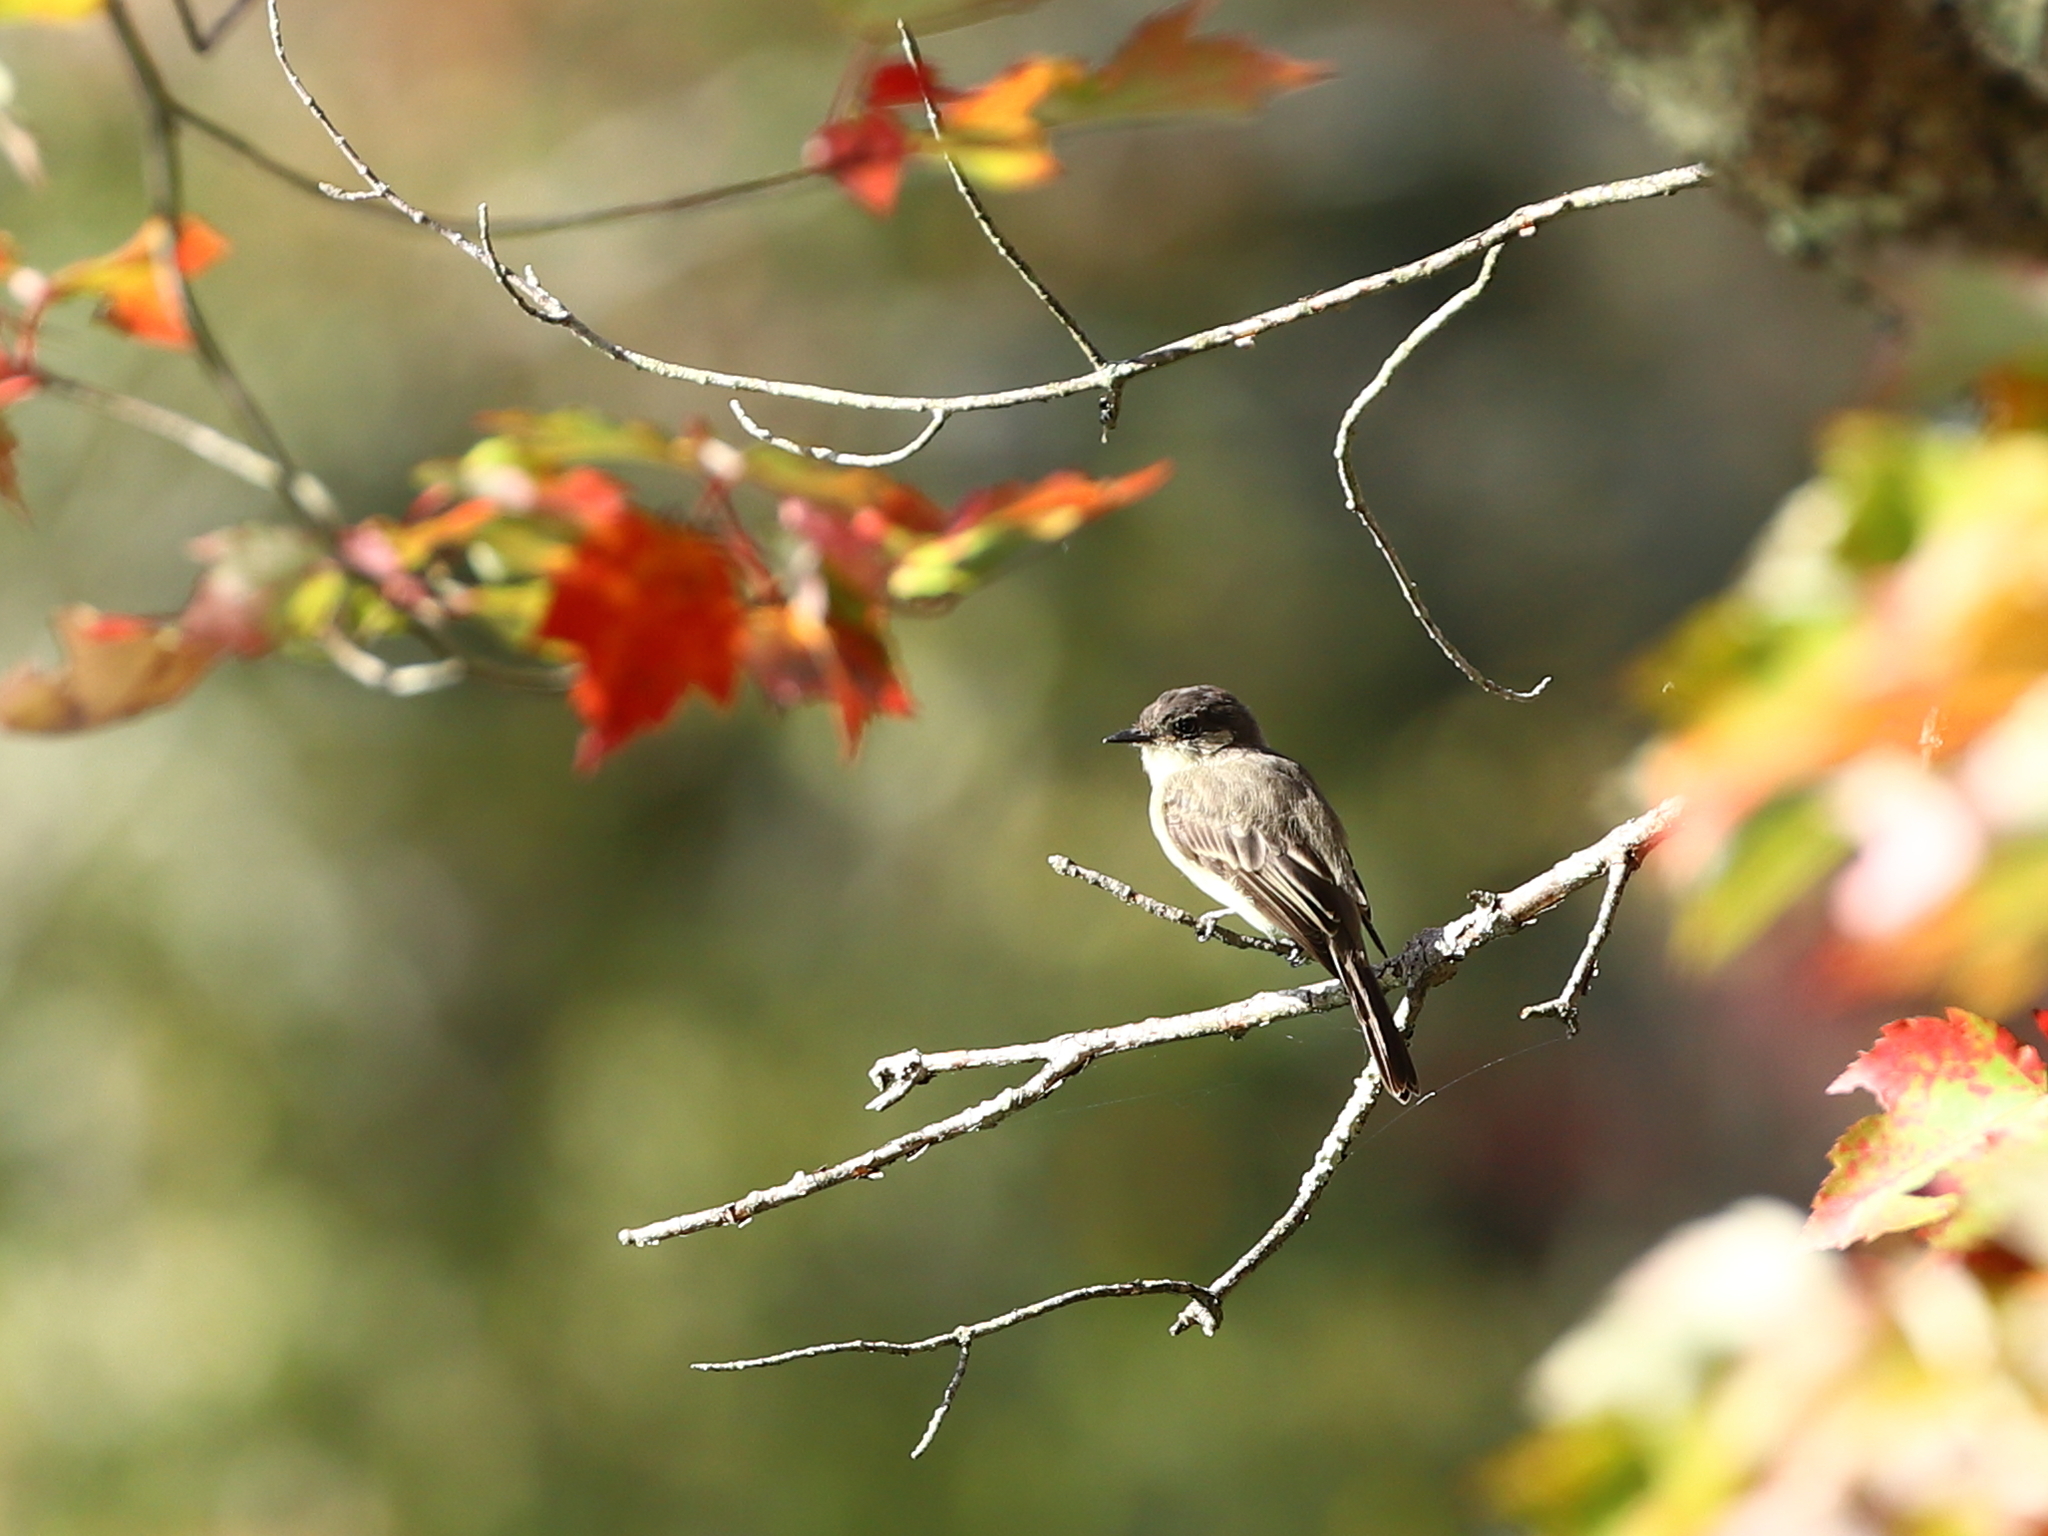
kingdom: Animalia
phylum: Chordata
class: Aves
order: Passeriformes
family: Tyrannidae
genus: Sayornis
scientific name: Sayornis phoebe
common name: Eastern phoebe
